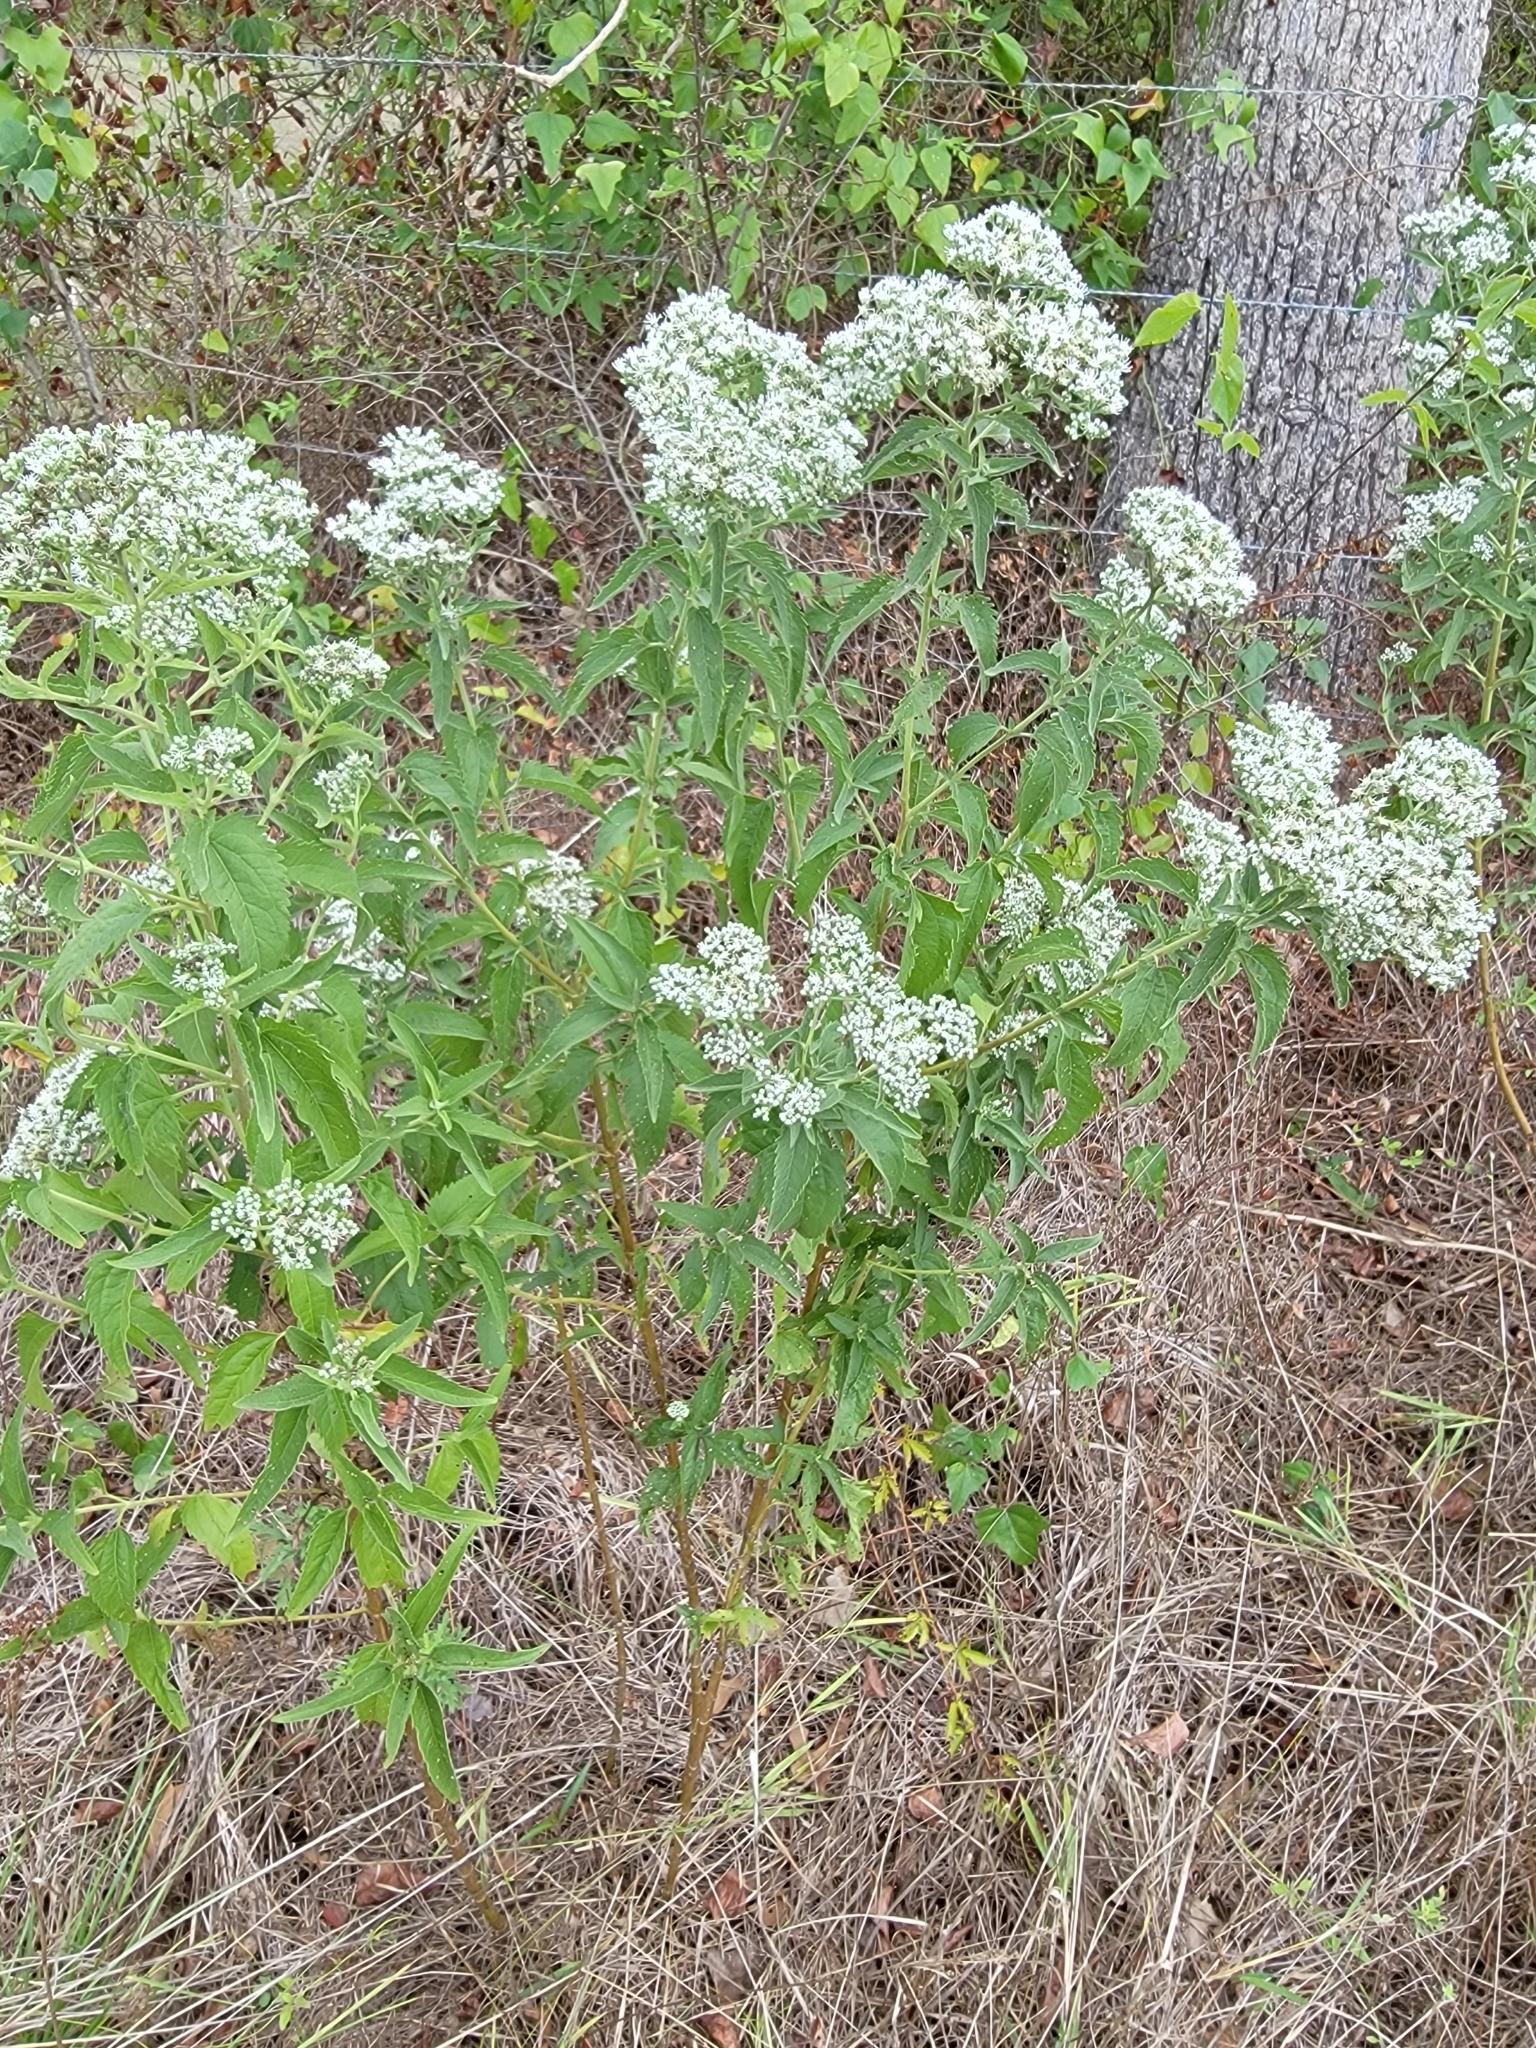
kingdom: Plantae
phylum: Tracheophyta
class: Magnoliopsida
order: Asterales
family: Asteraceae
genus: Eupatorium
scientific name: Eupatorium serotinum
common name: Late boneset
